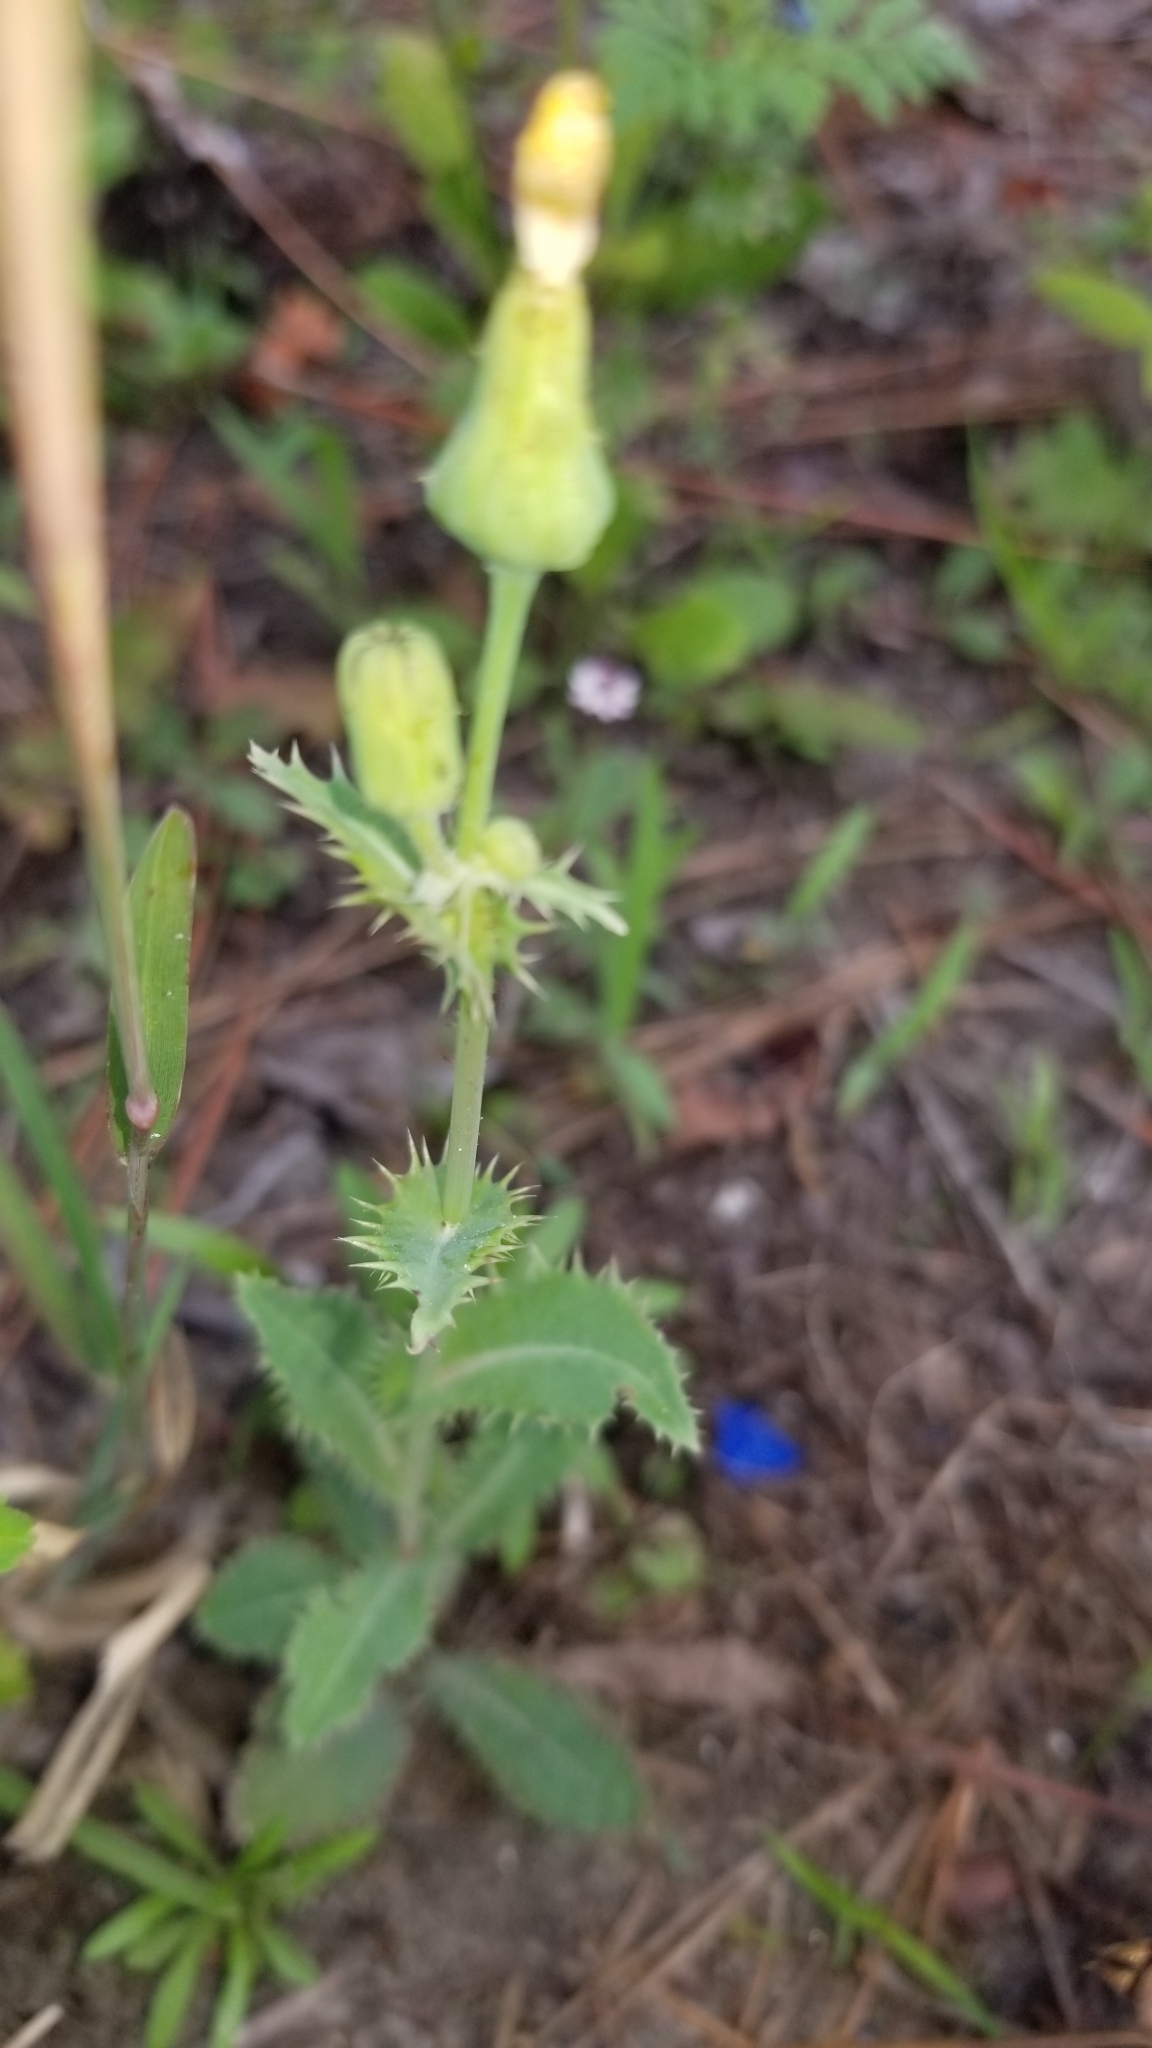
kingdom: Plantae
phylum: Tracheophyta
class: Magnoliopsida
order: Asterales
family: Asteraceae
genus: Sonchus
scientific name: Sonchus asper
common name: Prickly sow-thistle
